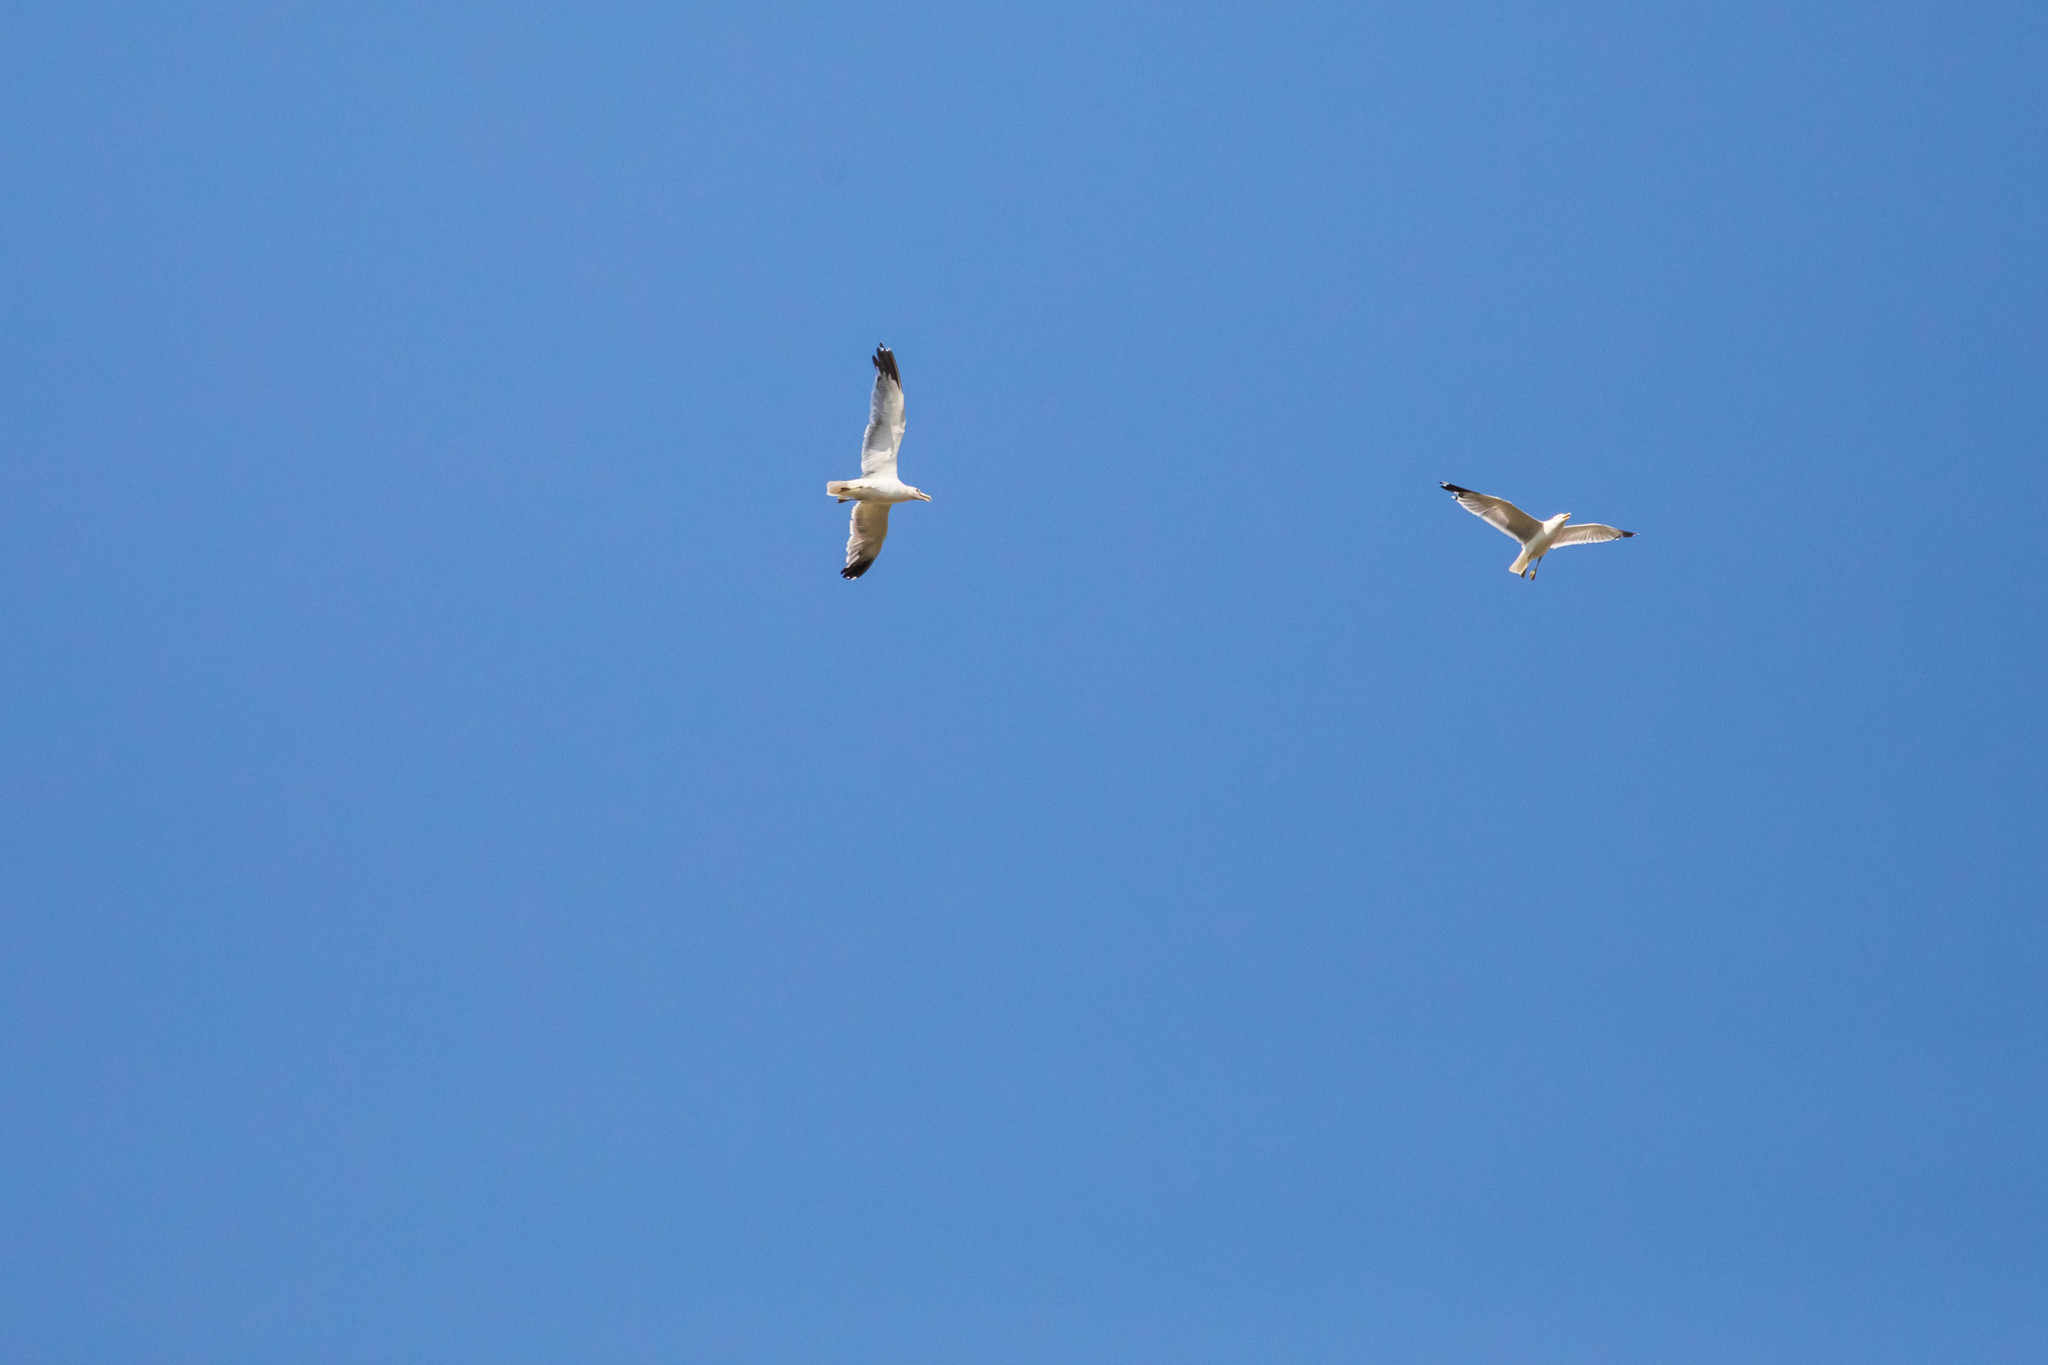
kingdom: Animalia
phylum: Chordata
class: Aves
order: Charadriiformes
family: Laridae
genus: Larus
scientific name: Larus californicus
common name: California gull
